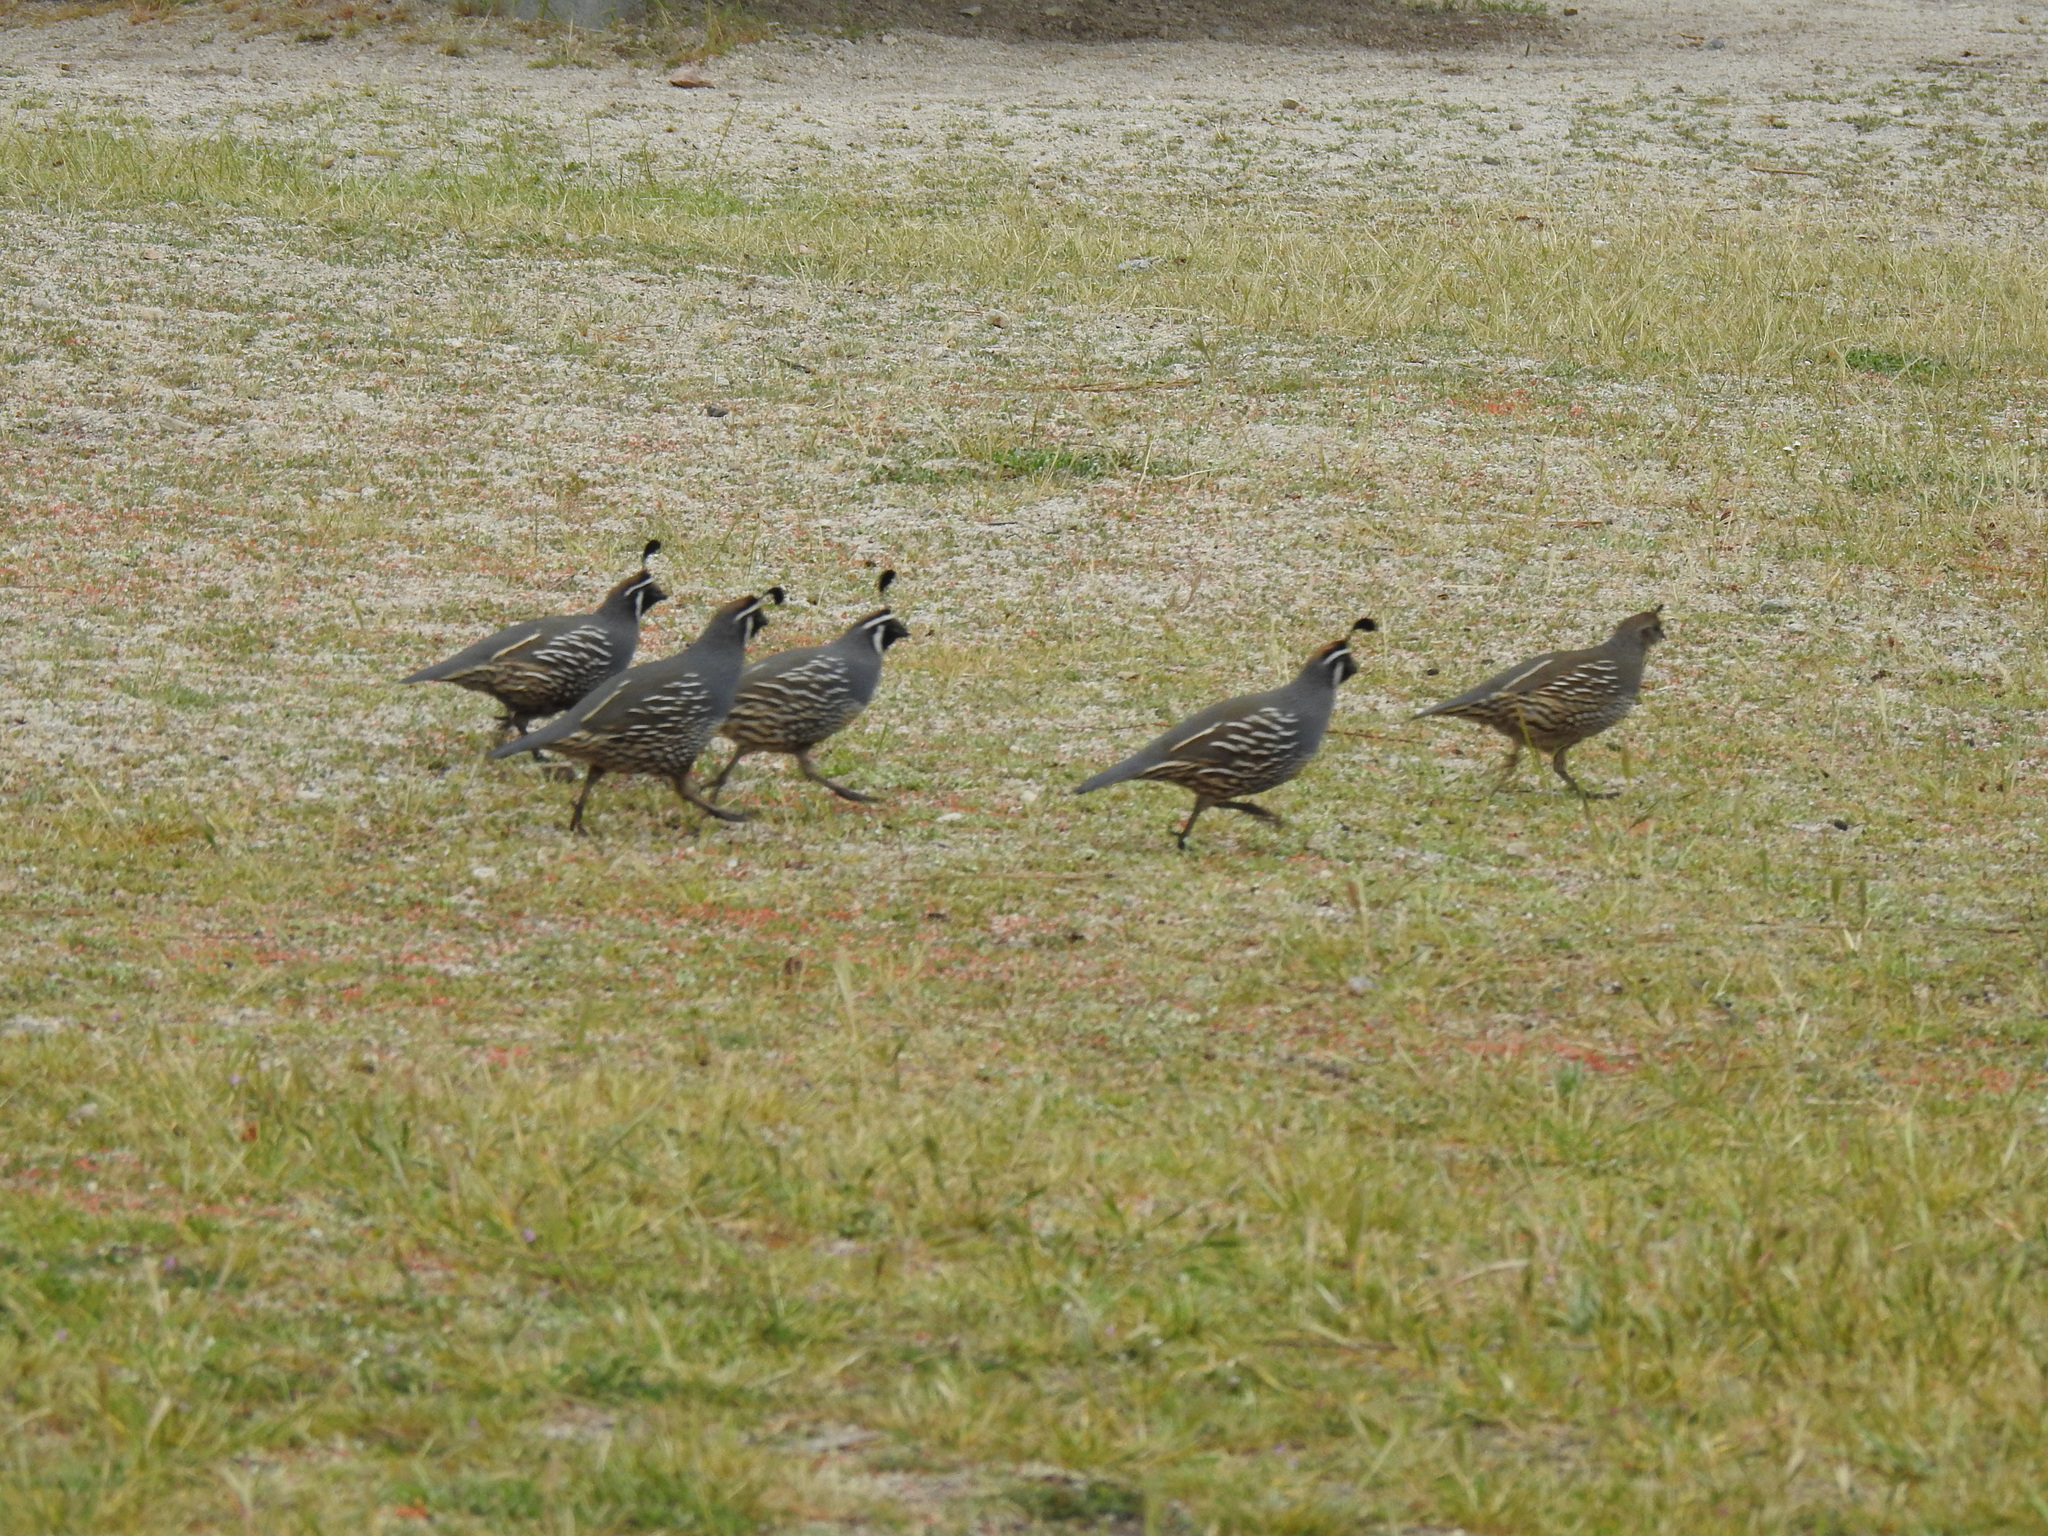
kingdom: Animalia
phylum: Chordata
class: Aves
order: Galliformes
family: Odontophoridae
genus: Callipepla
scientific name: Callipepla californica
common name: California quail
